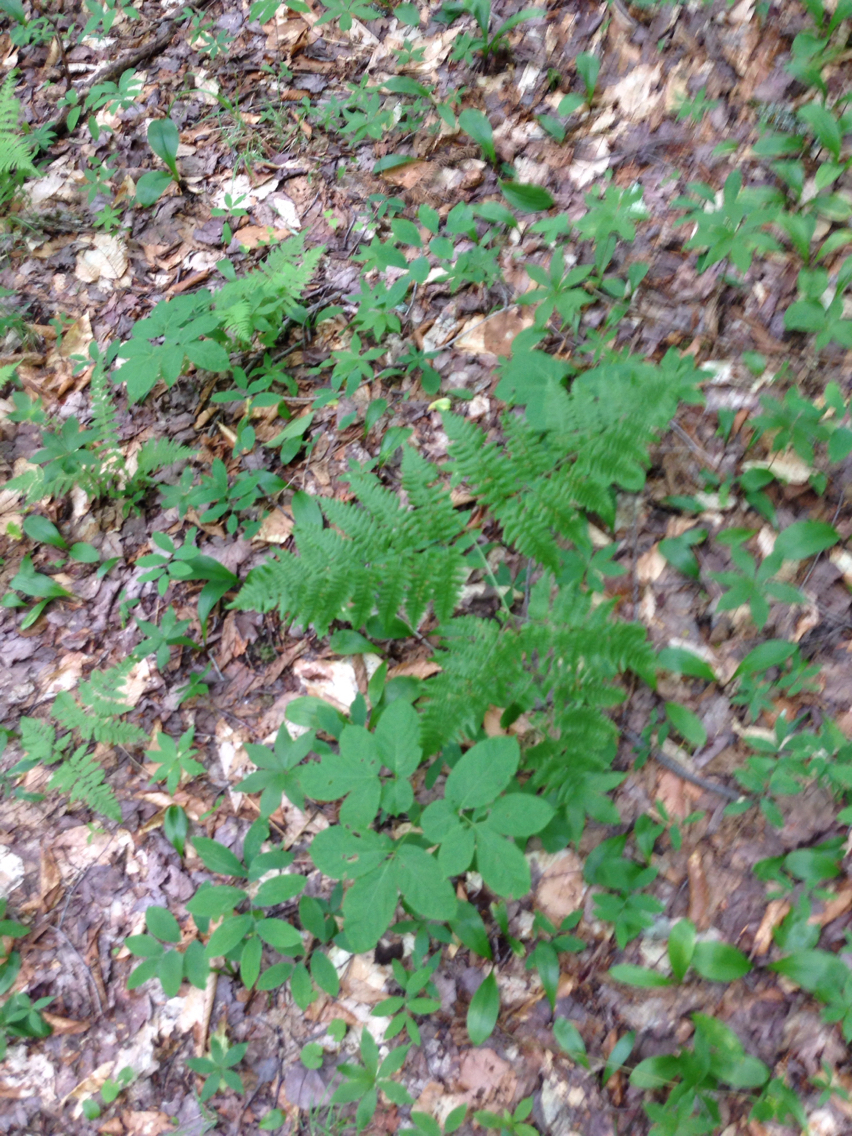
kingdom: Plantae
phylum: Tracheophyta
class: Polypodiopsida
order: Polypodiales
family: Dennstaedtiaceae
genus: Pteridium
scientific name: Pteridium aquilinum
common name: Bracken
